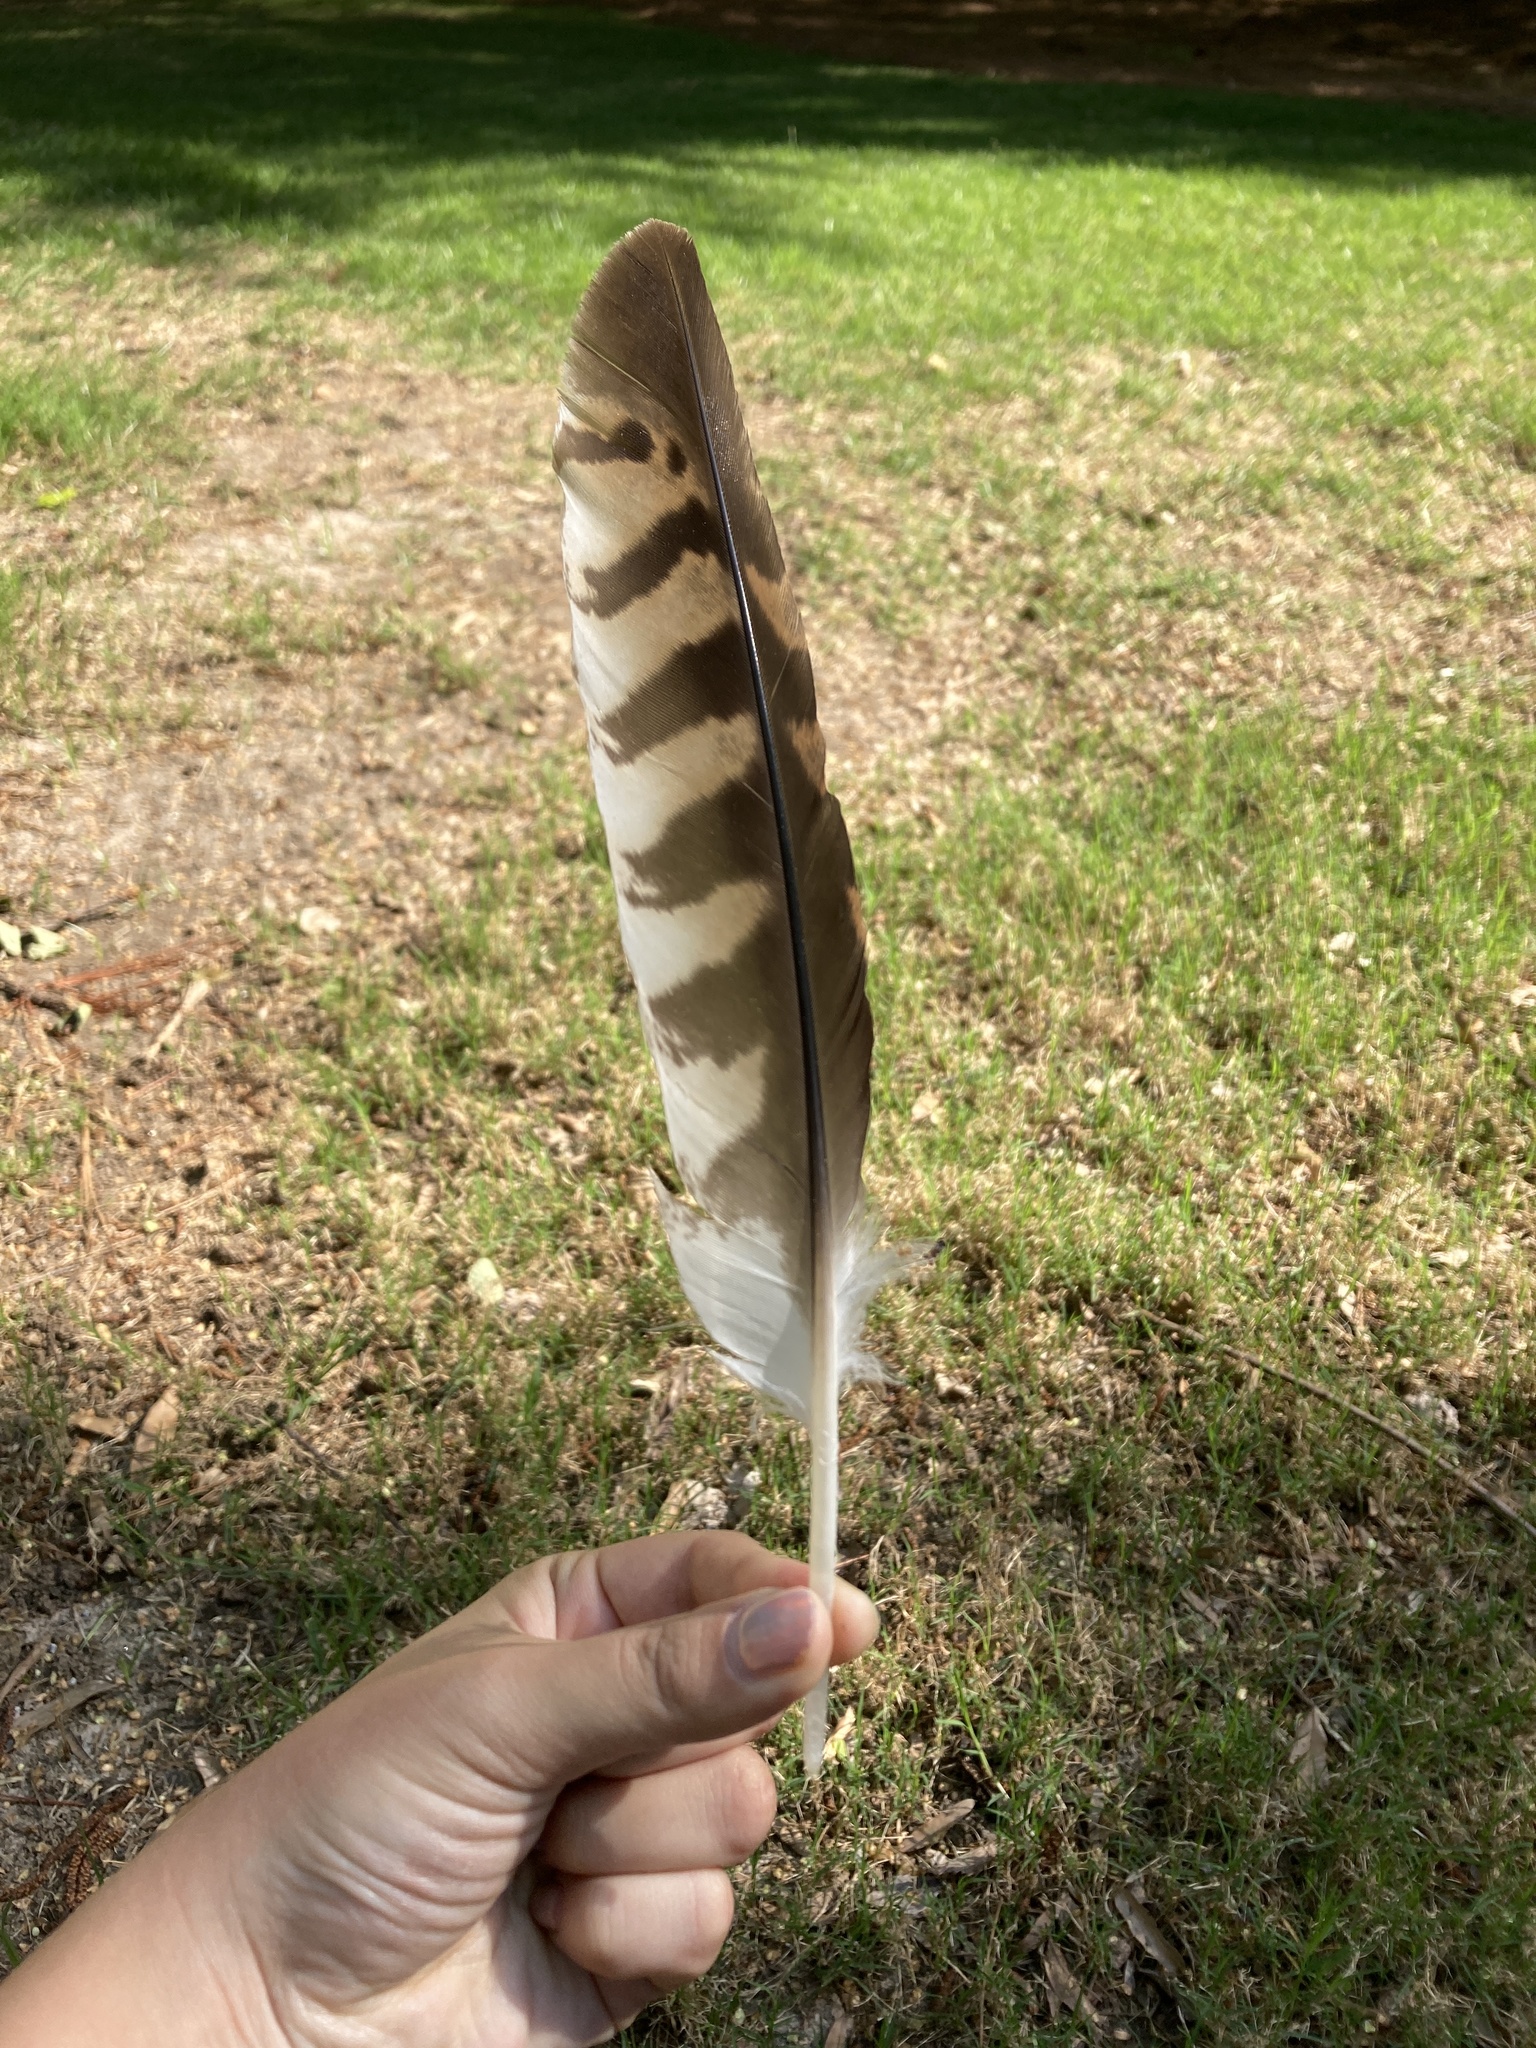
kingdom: Animalia
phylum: Chordata
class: Aves
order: Accipitriformes
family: Accipitridae
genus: Buteo
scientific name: Buteo lineatus
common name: Red-shouldered hawk
